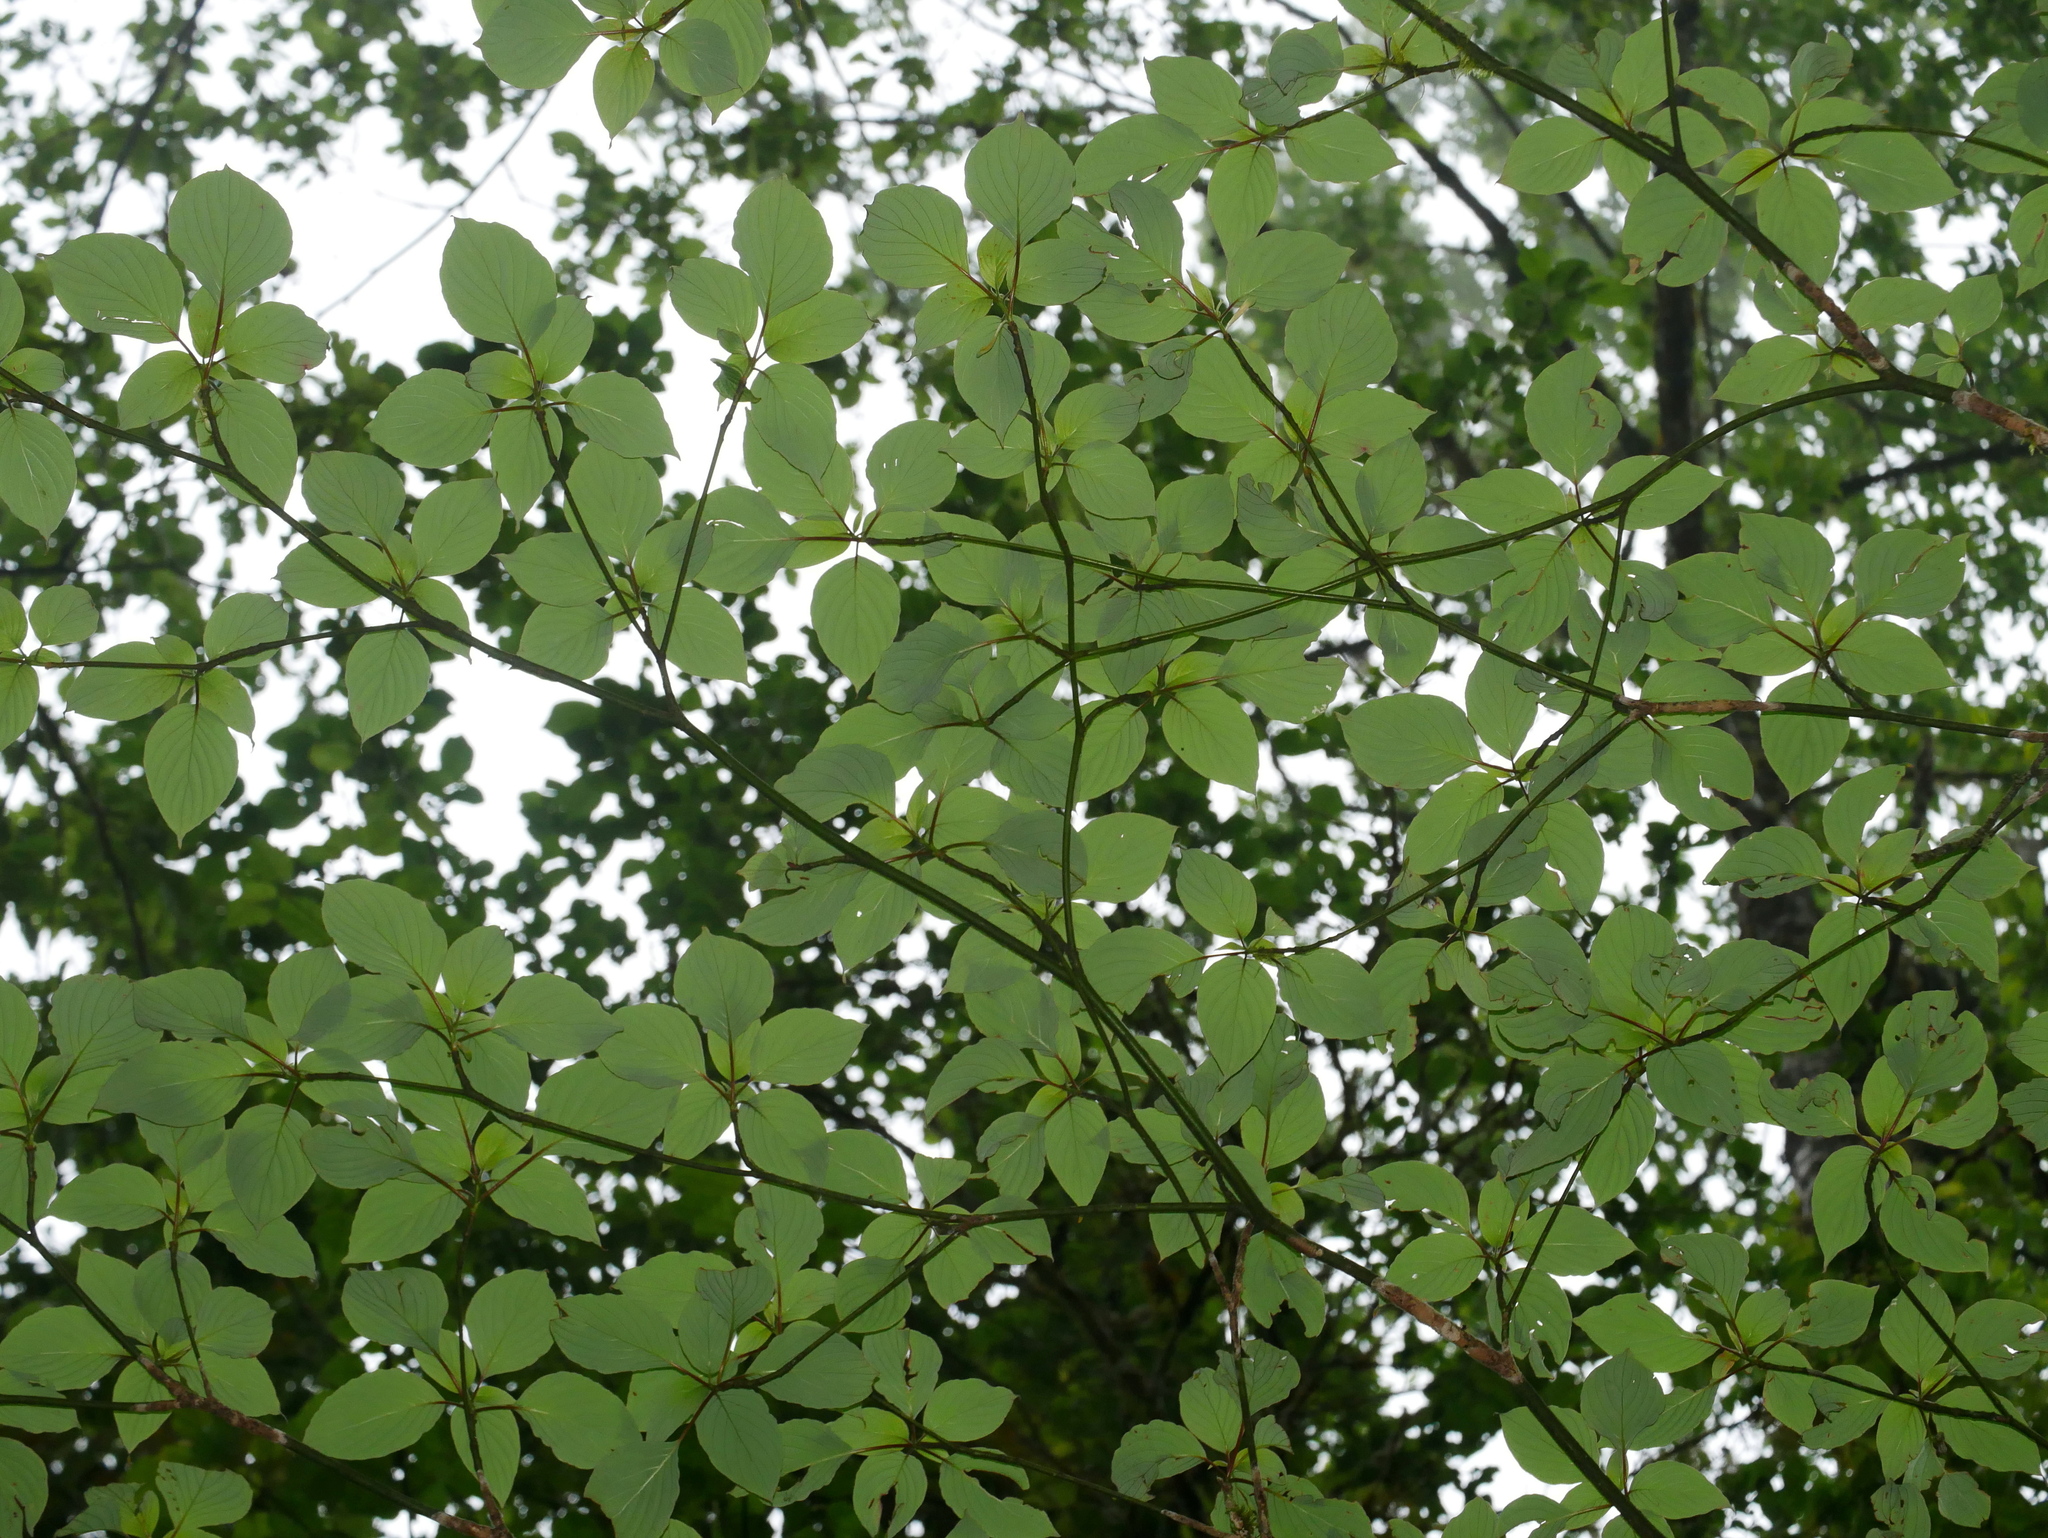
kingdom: Plantae
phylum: Tracheophyta
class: Magnoliopsida
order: Cornales
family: Cornaceae
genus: Cornus
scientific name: Cornus controversa
